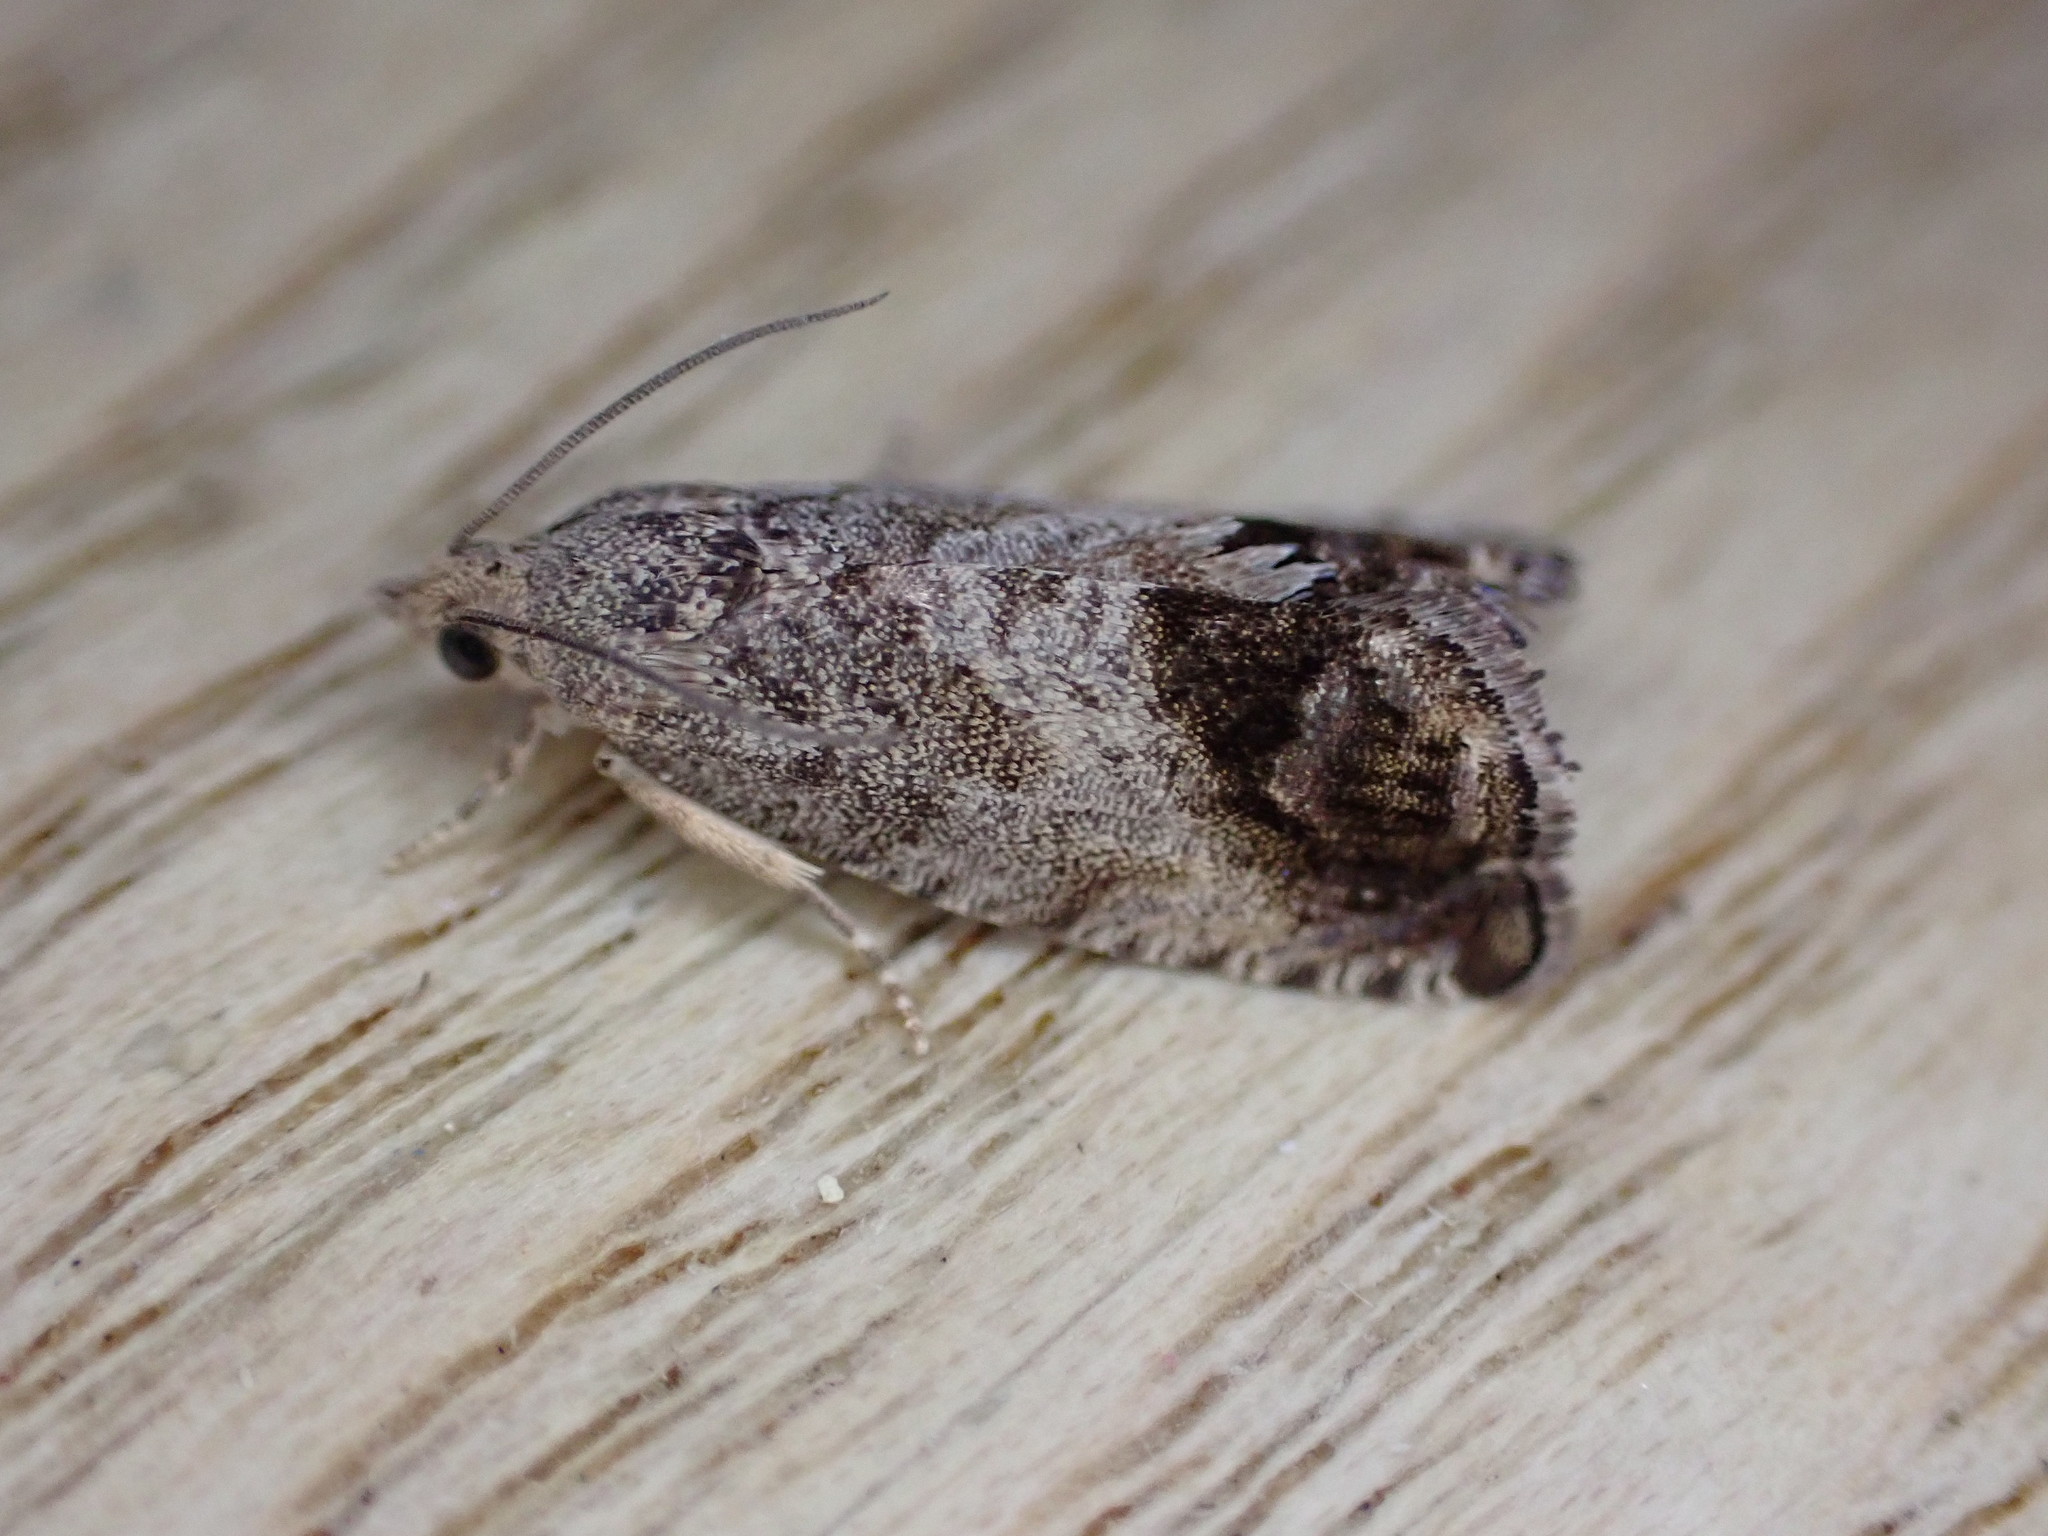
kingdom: Animalia
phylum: Arthropoda
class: Insecta
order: Lepidoptera
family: Tortricidae
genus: Cydia
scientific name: Cydia splendana
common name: De: kastanienwickler, eichenwickler es: oruga de la castaña fr: carpocapse des châtaignes it: cidia o tortrice tardiva delle castagne pt: bichado das castanhas gb: acorn moth, chestnut fruit tortrix
